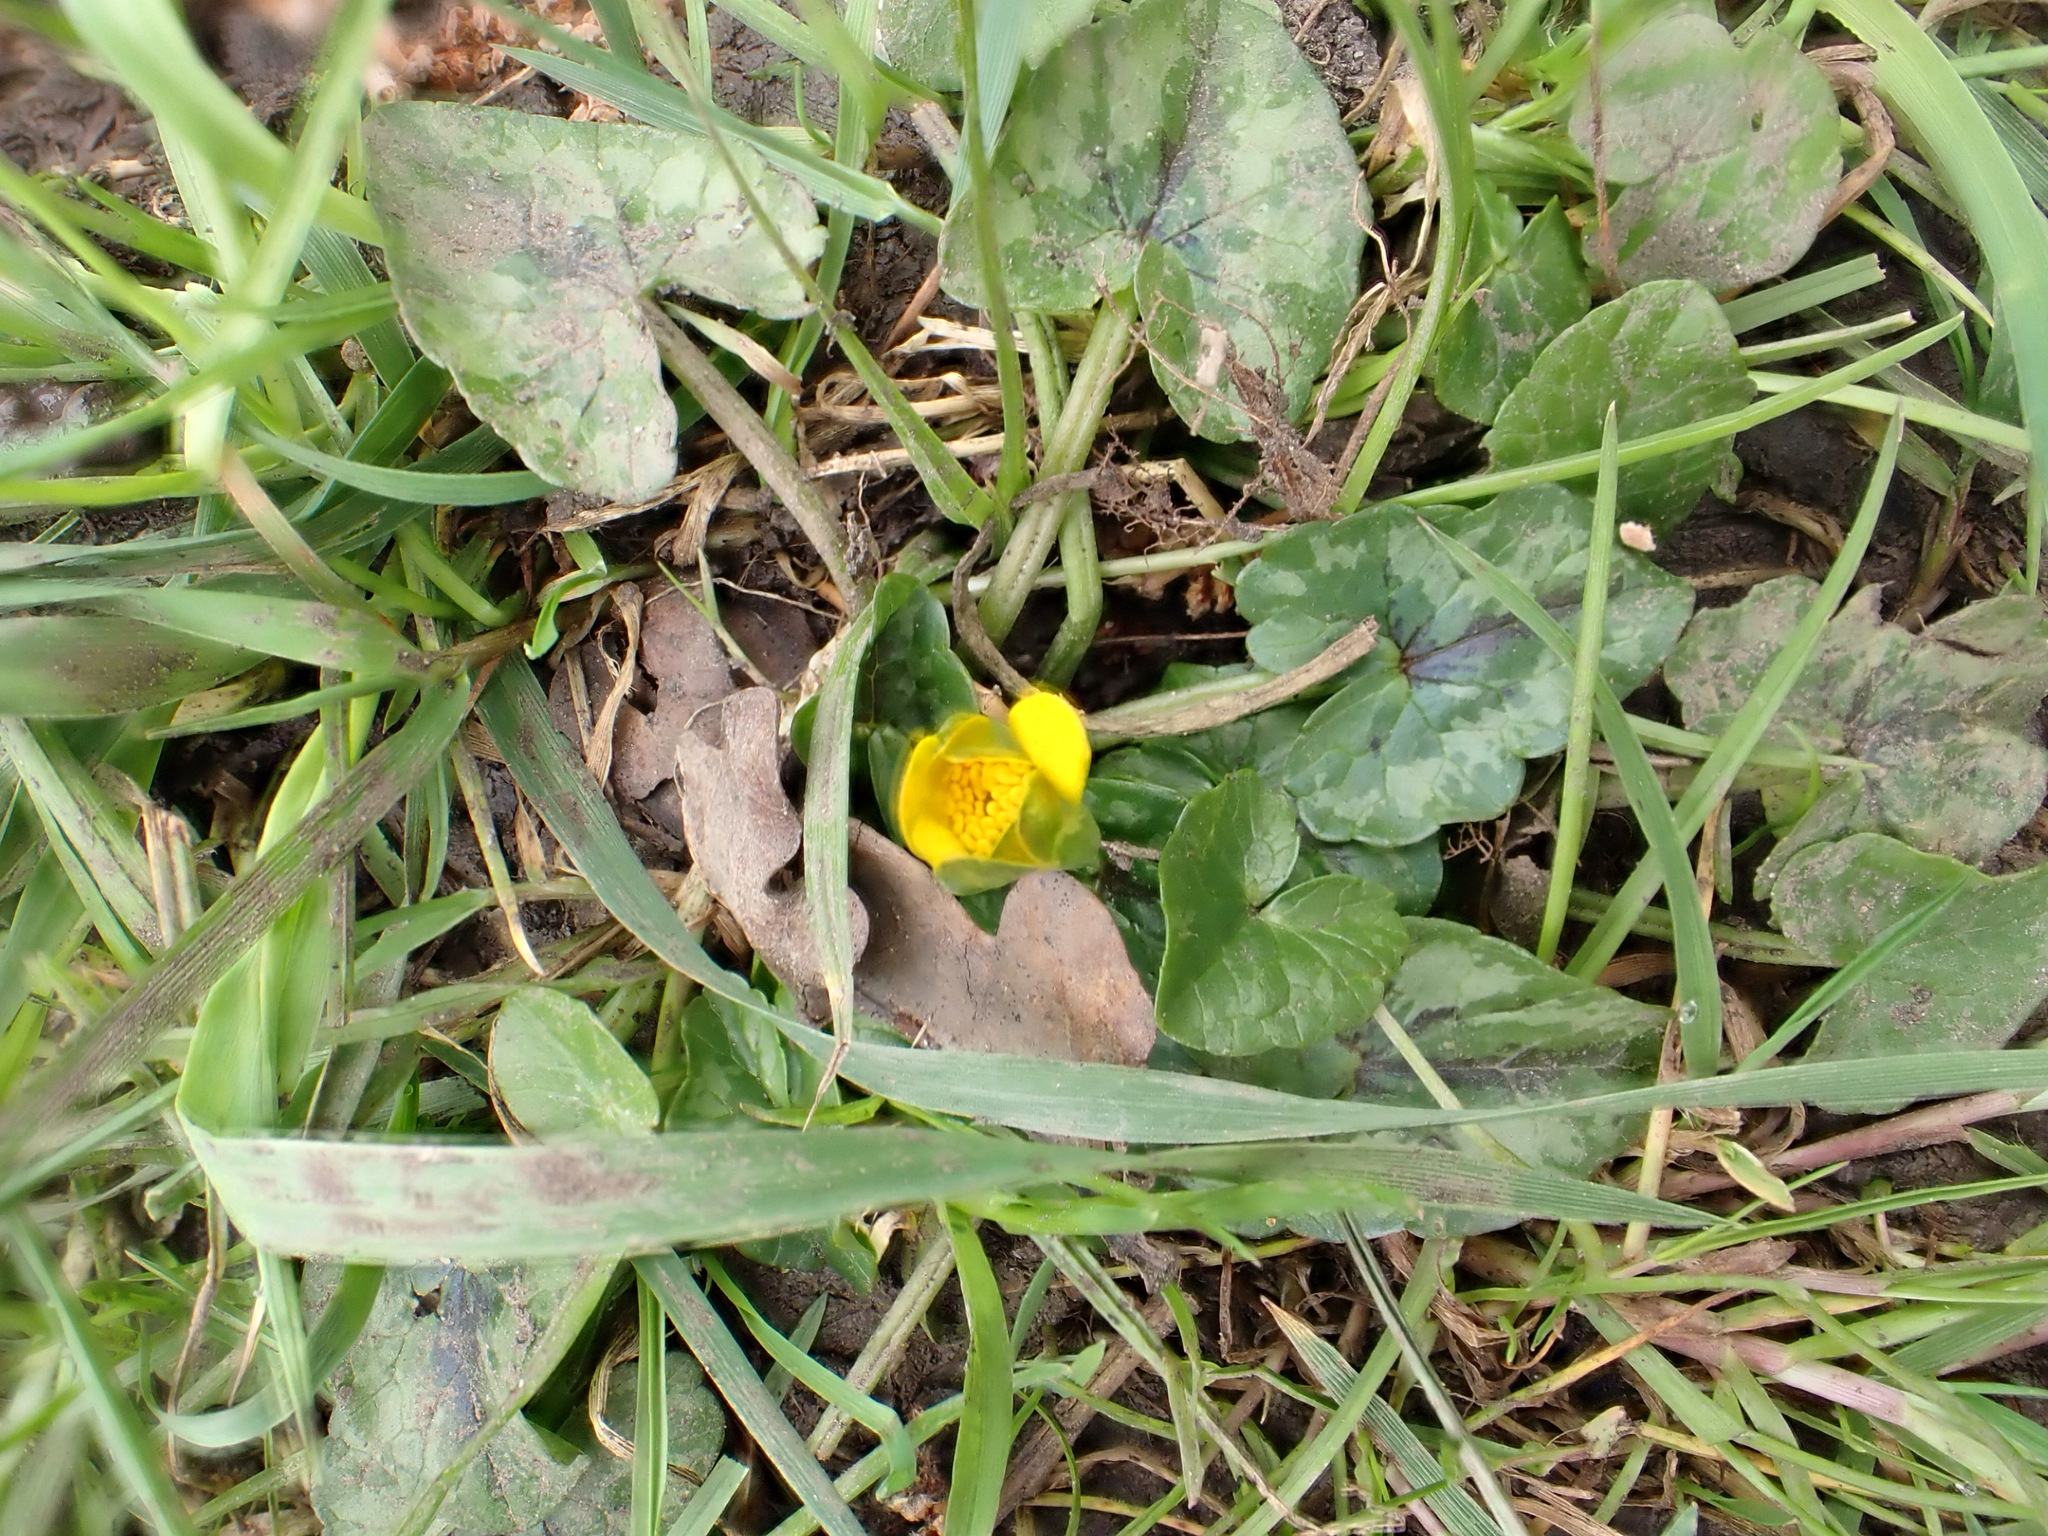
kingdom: Plantae
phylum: Tracheophyta
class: Magnoliopsida
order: Ranunculales
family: Ranunculaceae
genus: Ficaria
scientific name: Ficaria verna
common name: Lesser celandine
